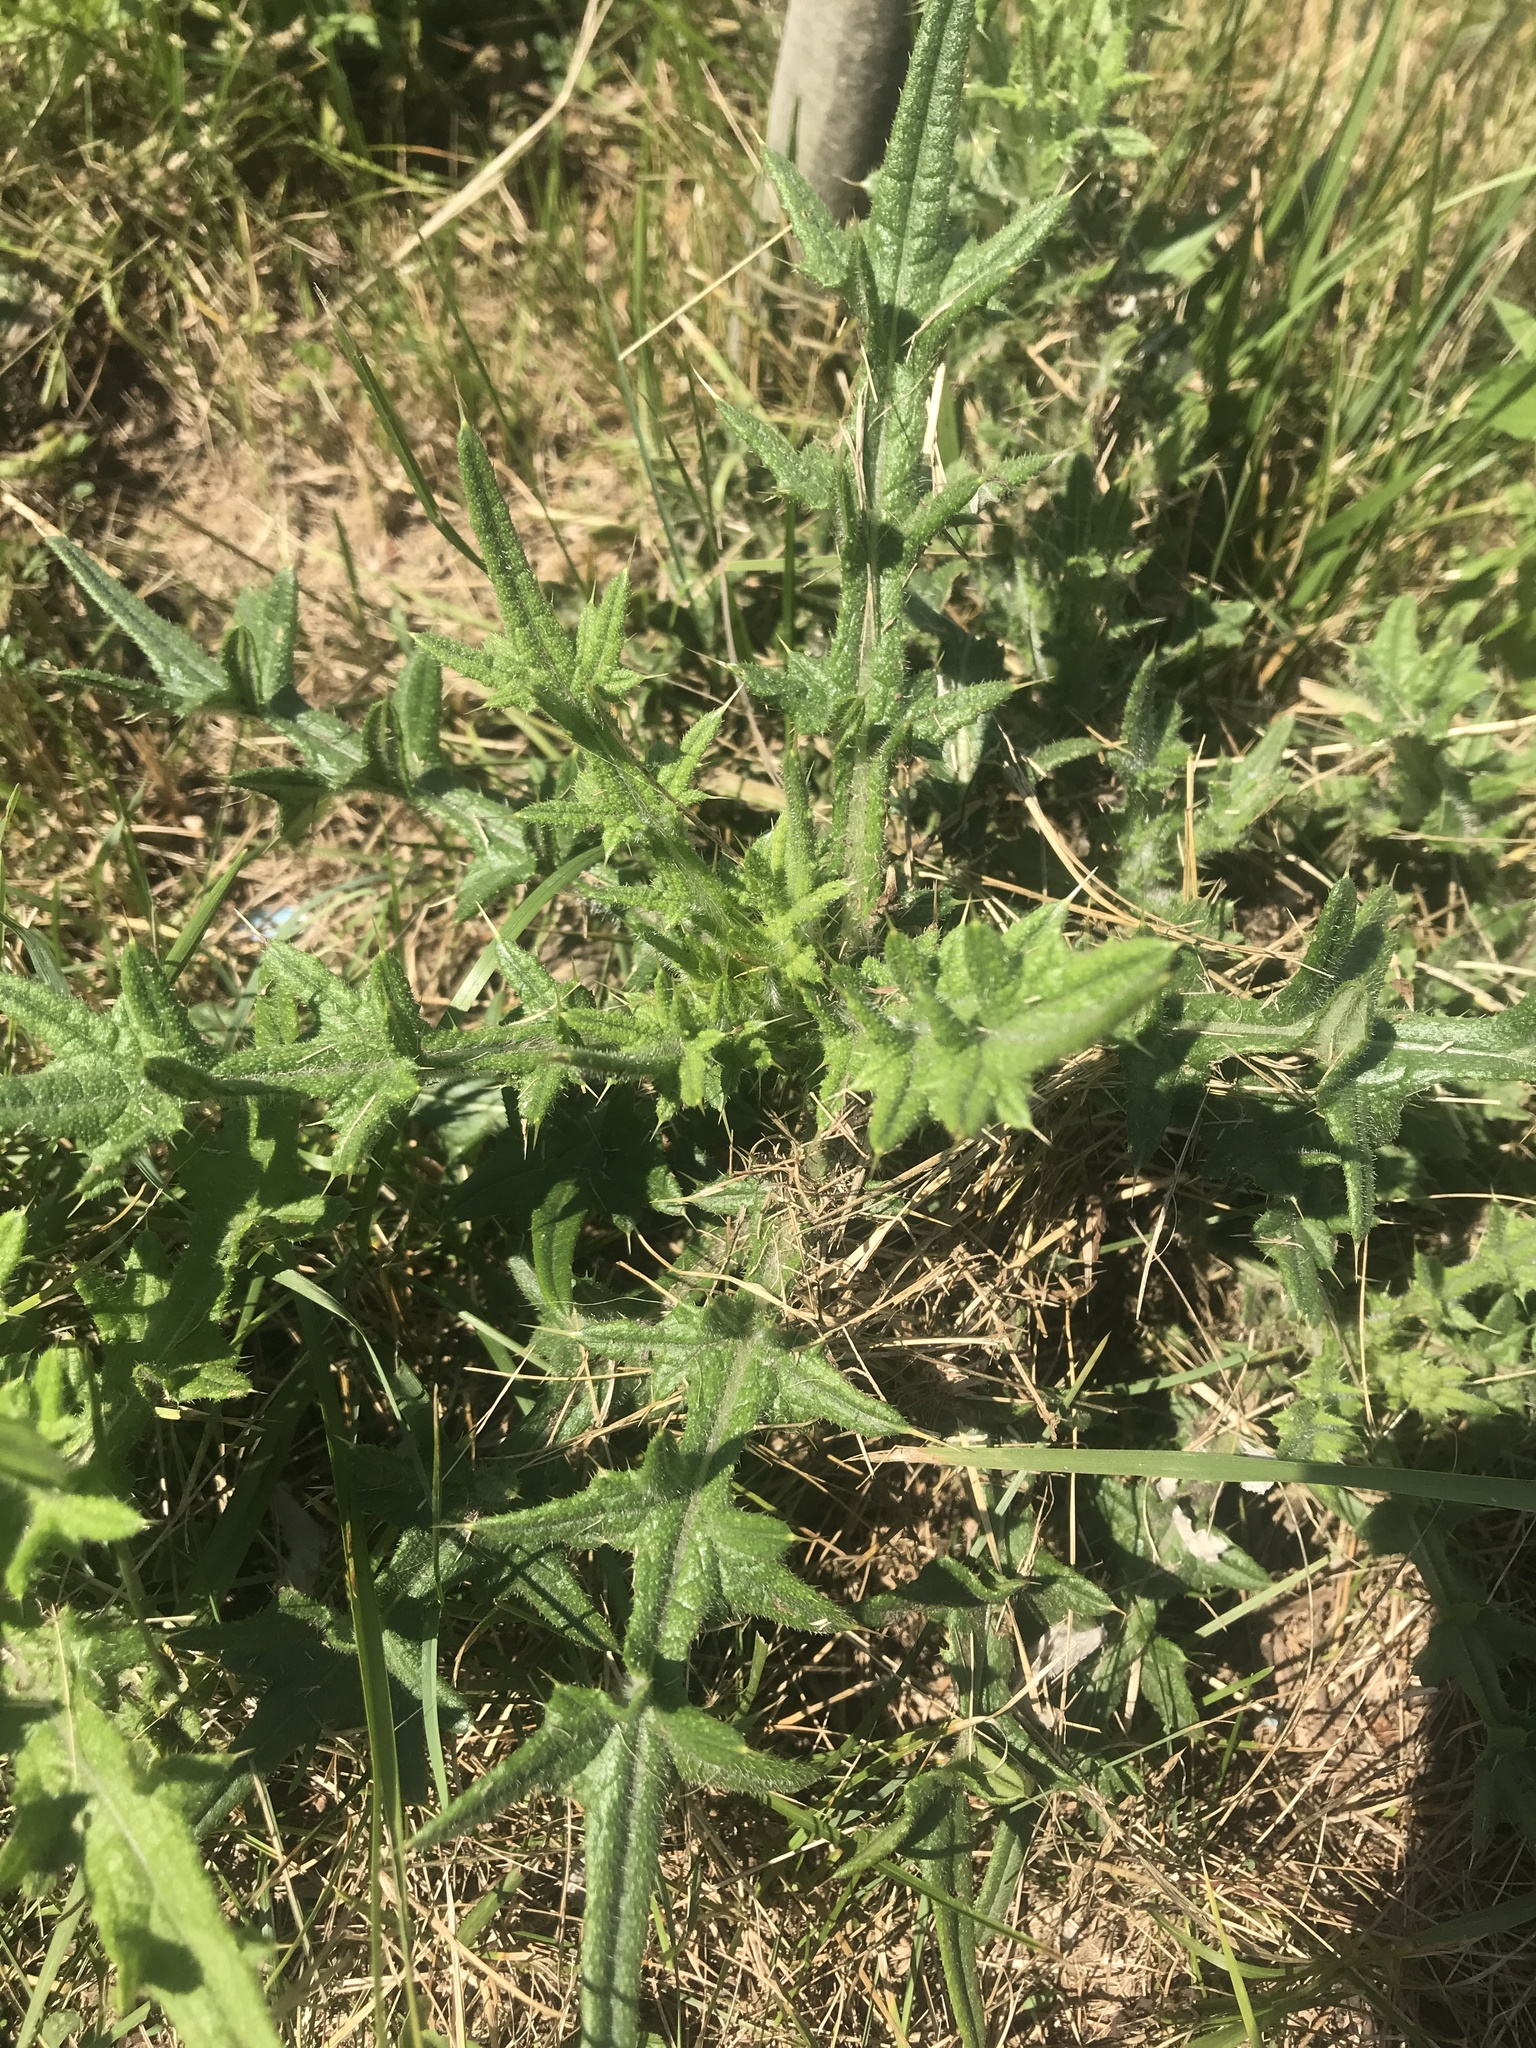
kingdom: Plantae
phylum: Tracheophyta
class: Magnoliopsida
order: Asterales
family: Asteraceae
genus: Cirsium
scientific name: Cirsium vulgare
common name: Bull thistle
